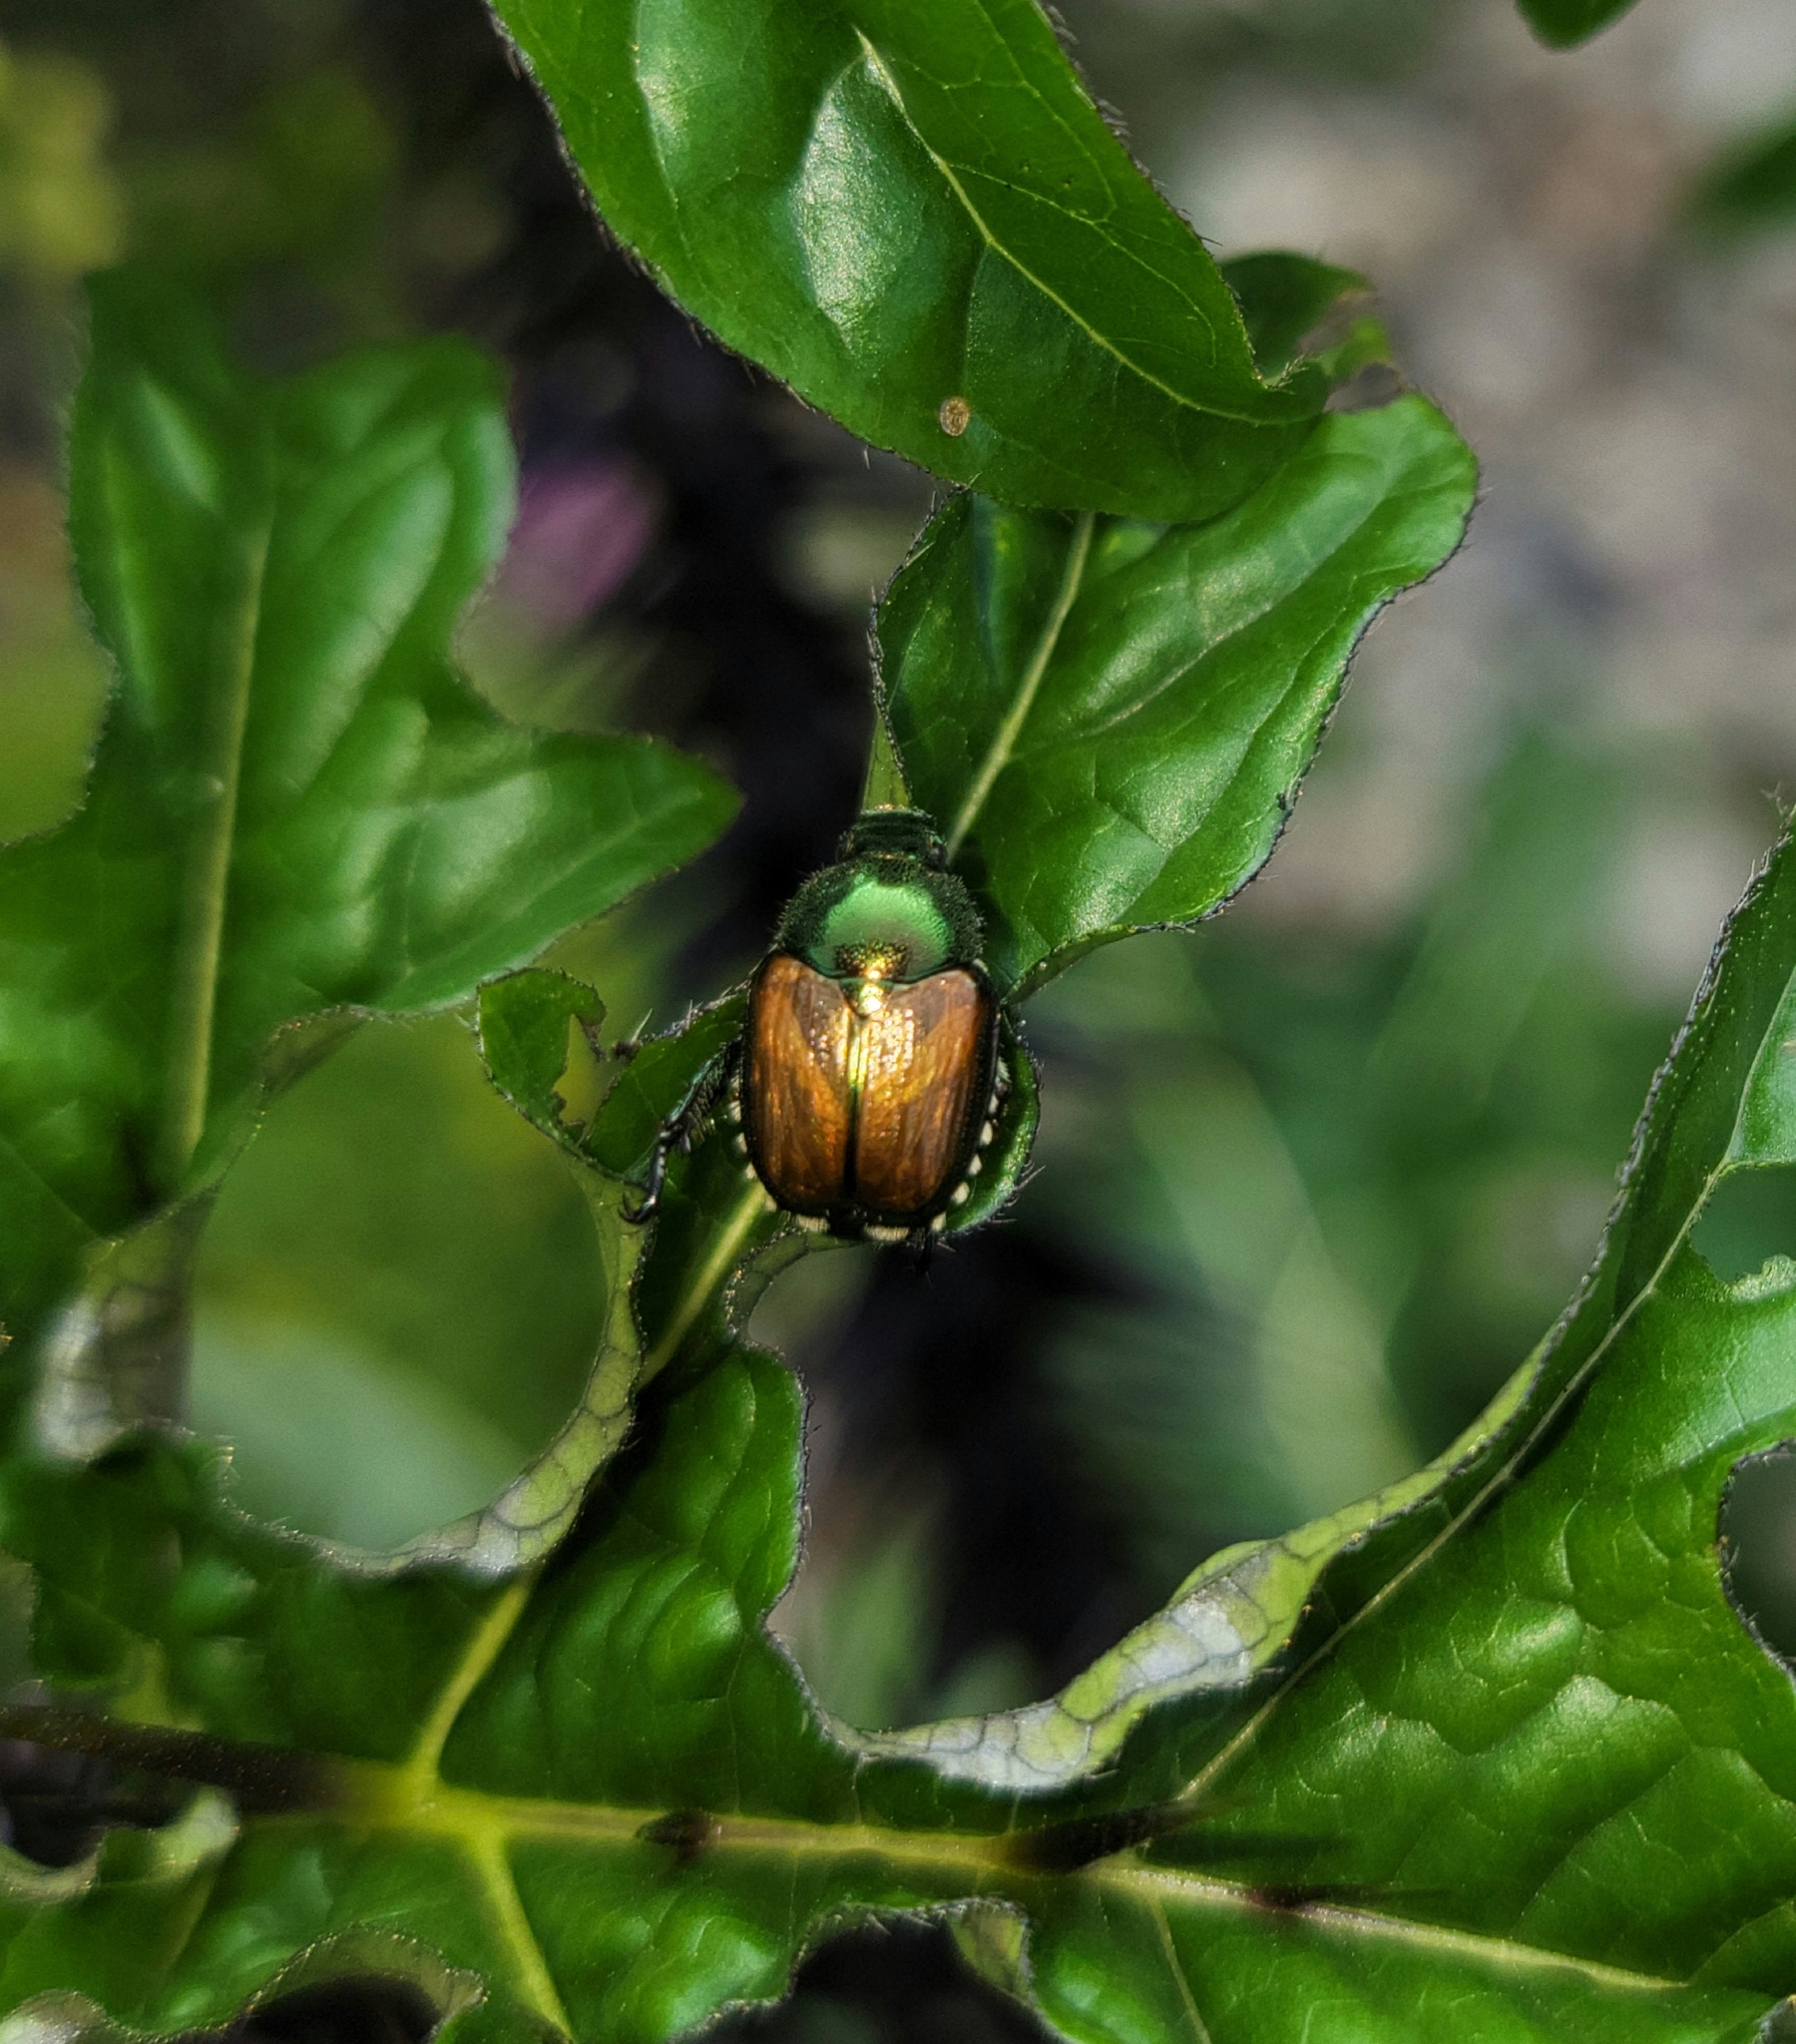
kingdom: Animalia
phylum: Arthropoda
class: Insecta
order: Coleoptera
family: Scarabaeidae
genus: Popillia
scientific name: Popillia japonica
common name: Japanese beetle
